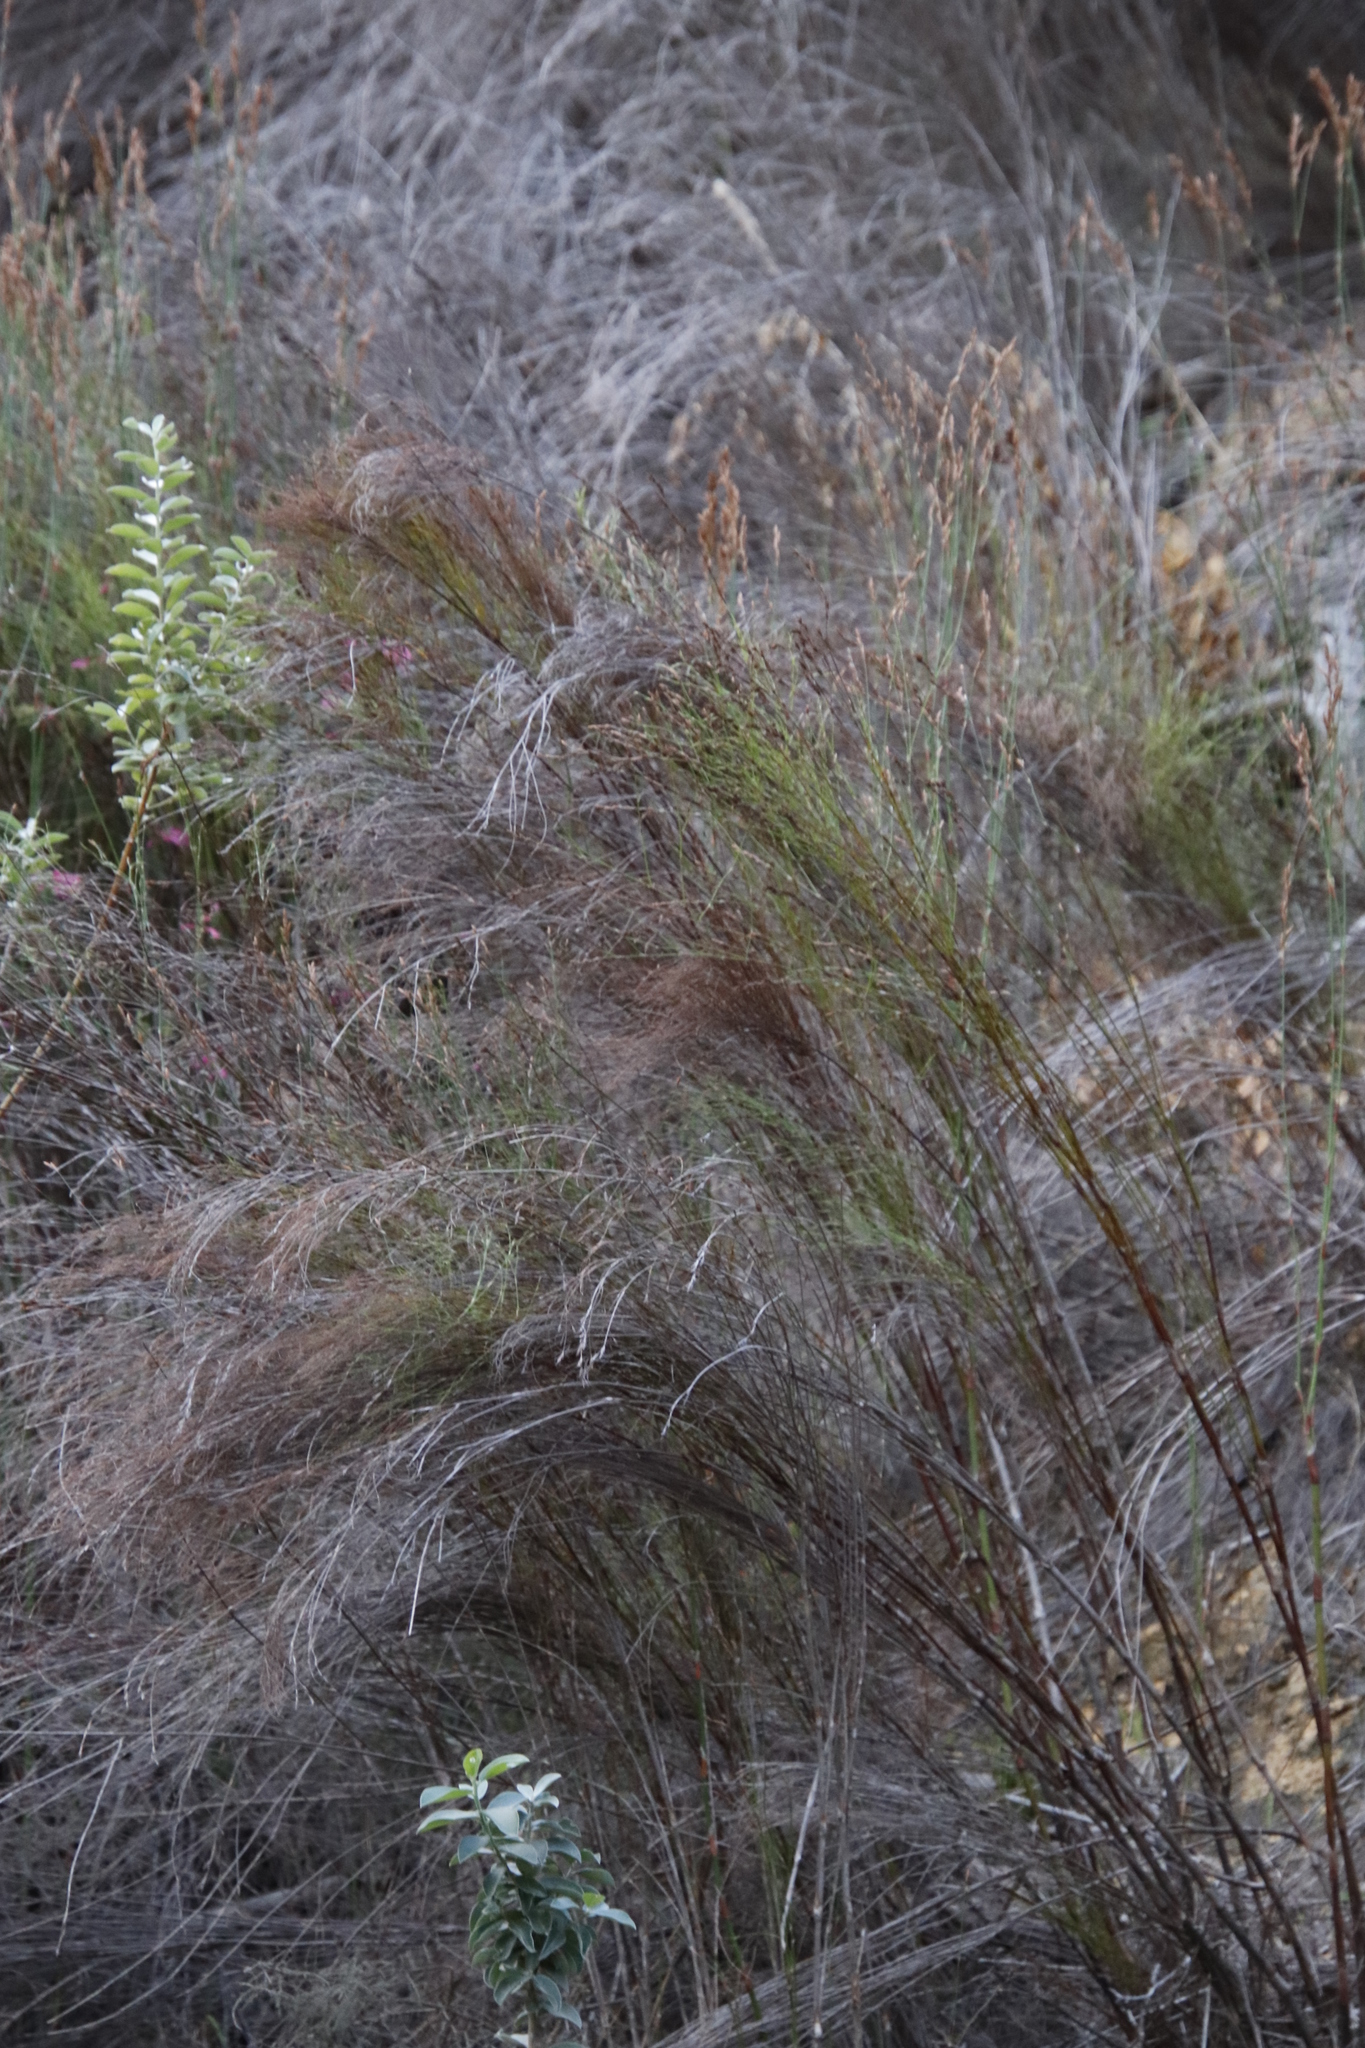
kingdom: Plantae
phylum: Tracheophyta
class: Liliopsida
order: Poales
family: Restionaceae
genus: Cannomois
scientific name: Cannomois virgata
